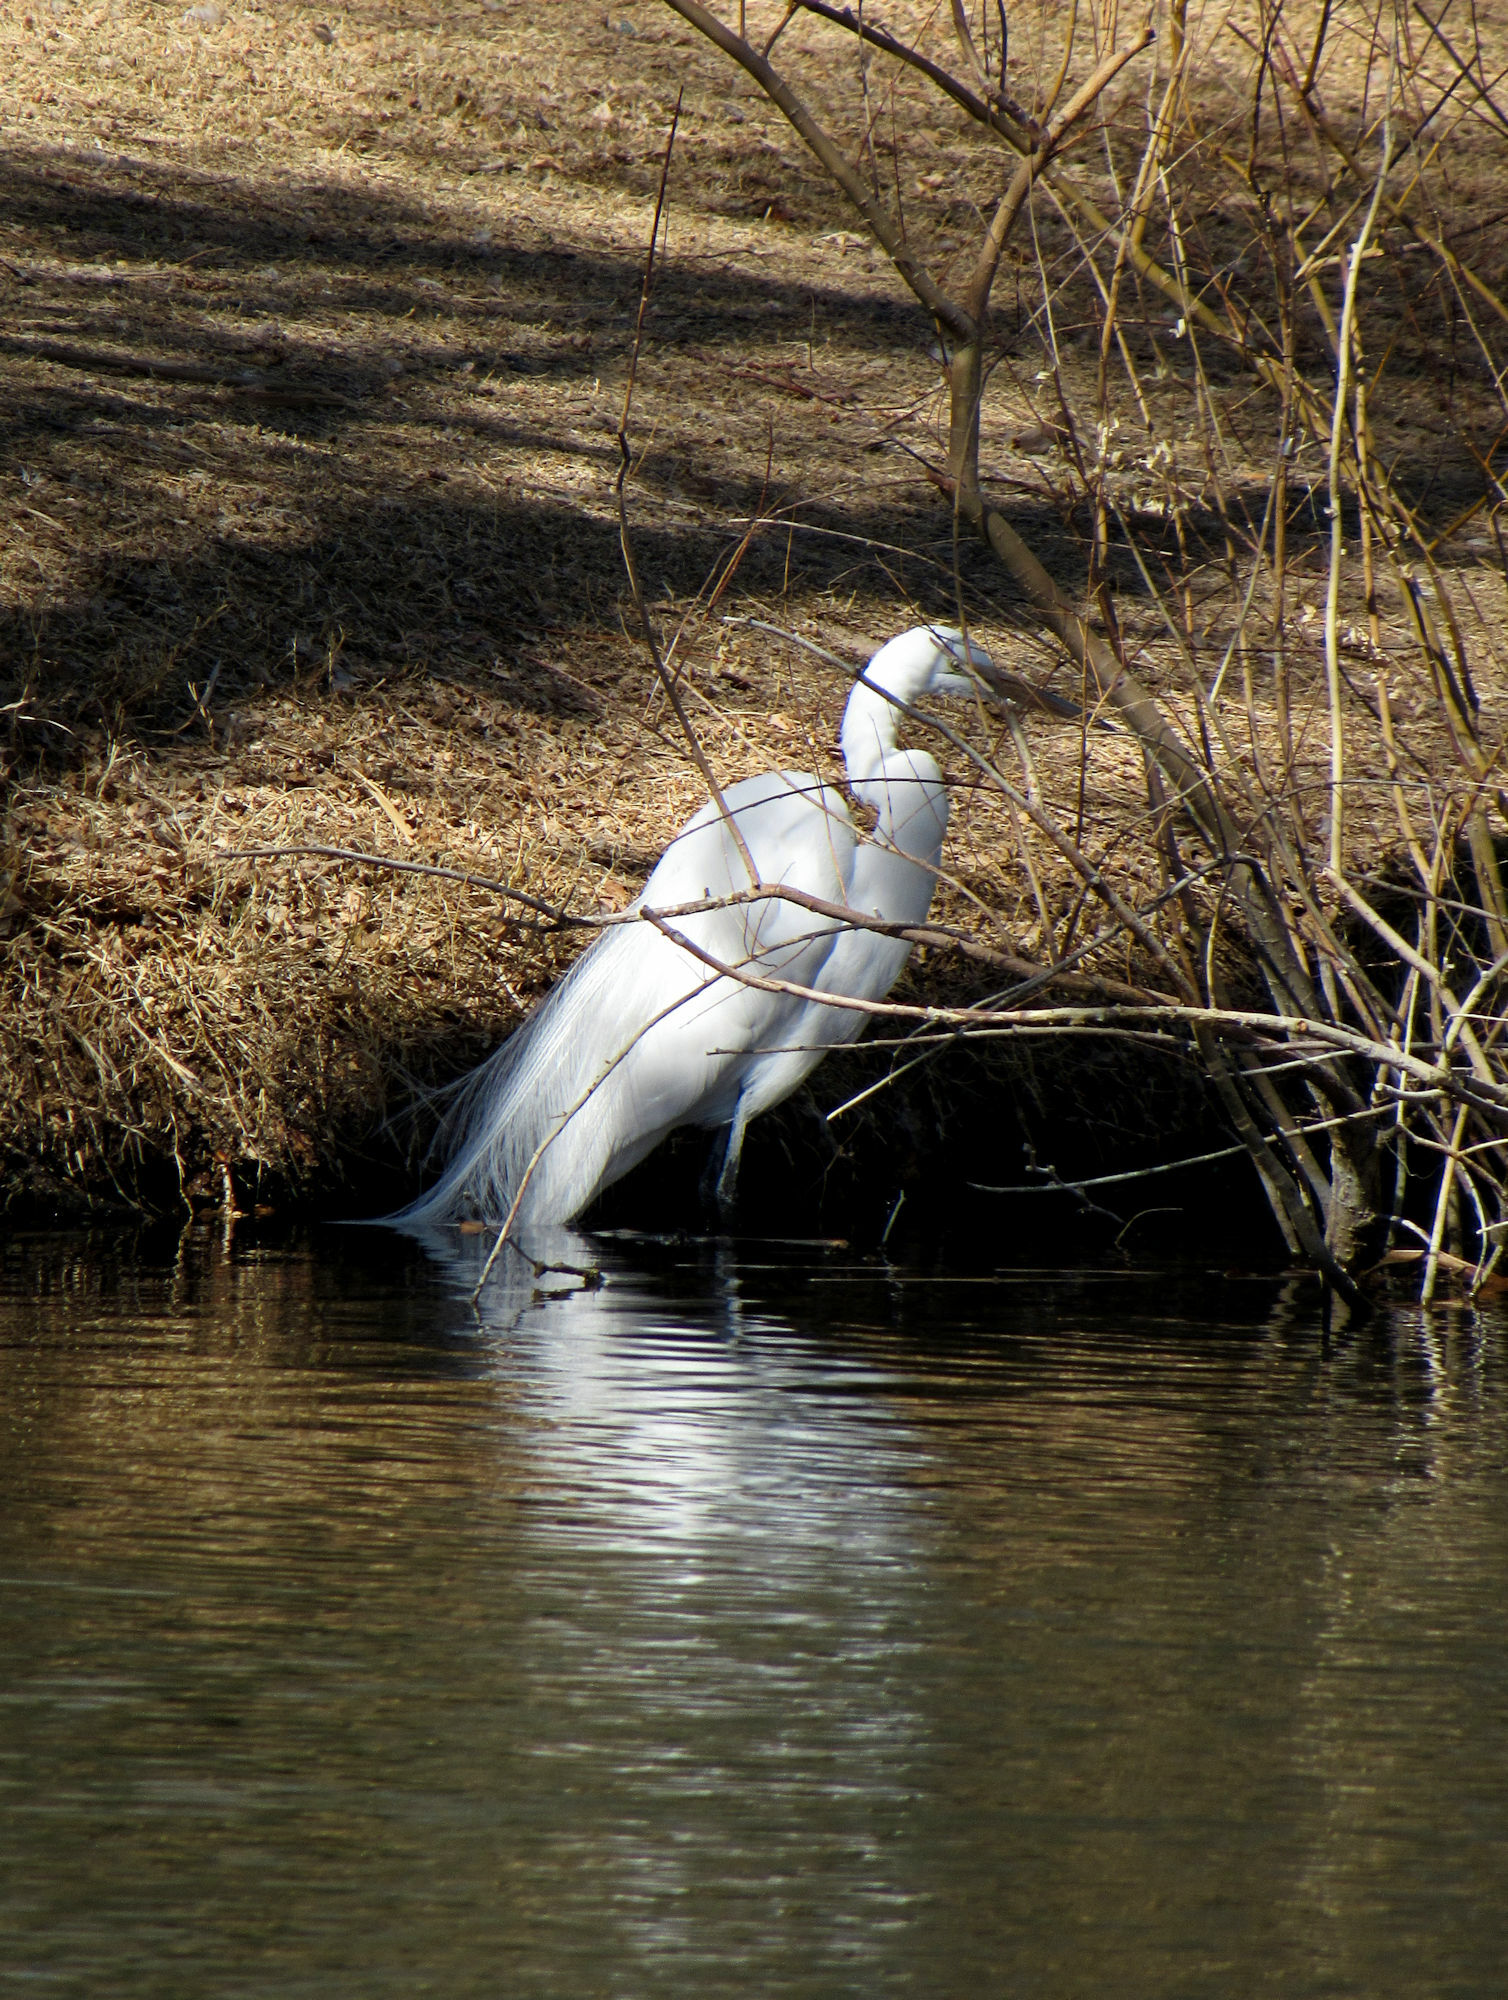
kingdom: Animalia
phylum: Chordata
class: Aves
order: Pelecaniformes
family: Ardeidae
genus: Ardea
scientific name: Ardea alba
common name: Great egret
